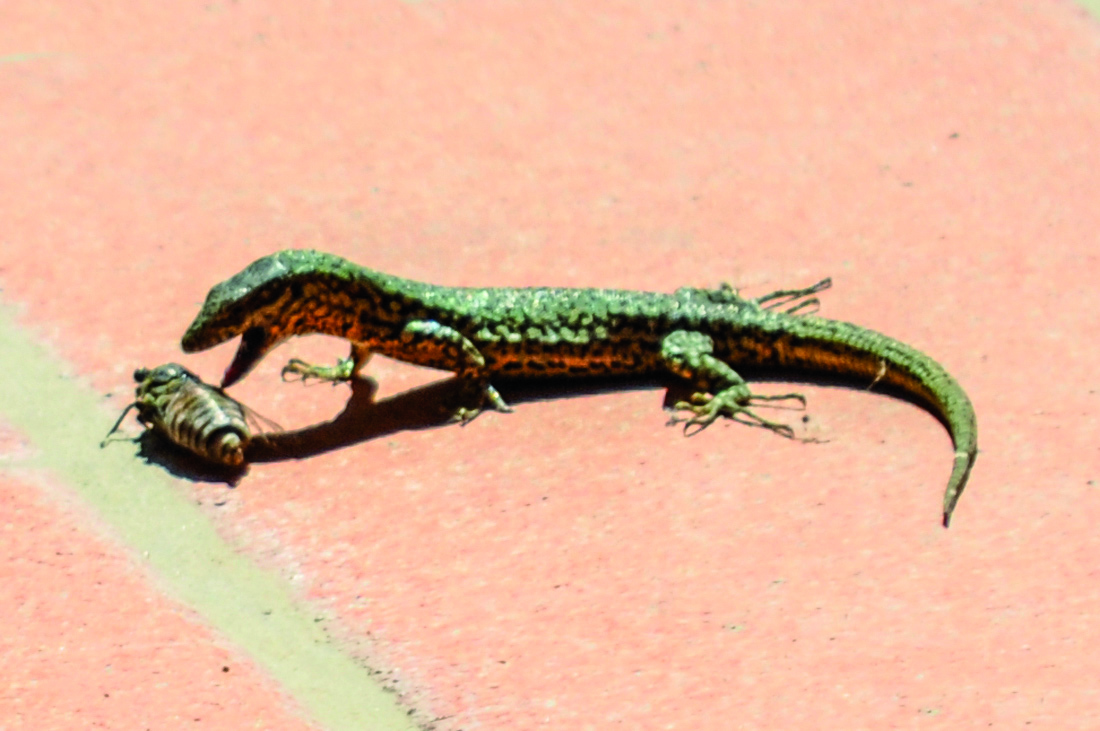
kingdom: Animalia
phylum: Chordata
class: Squamata
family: Lacertidae
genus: Podarcis
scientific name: Podarcis muralis
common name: Common wall lizard
